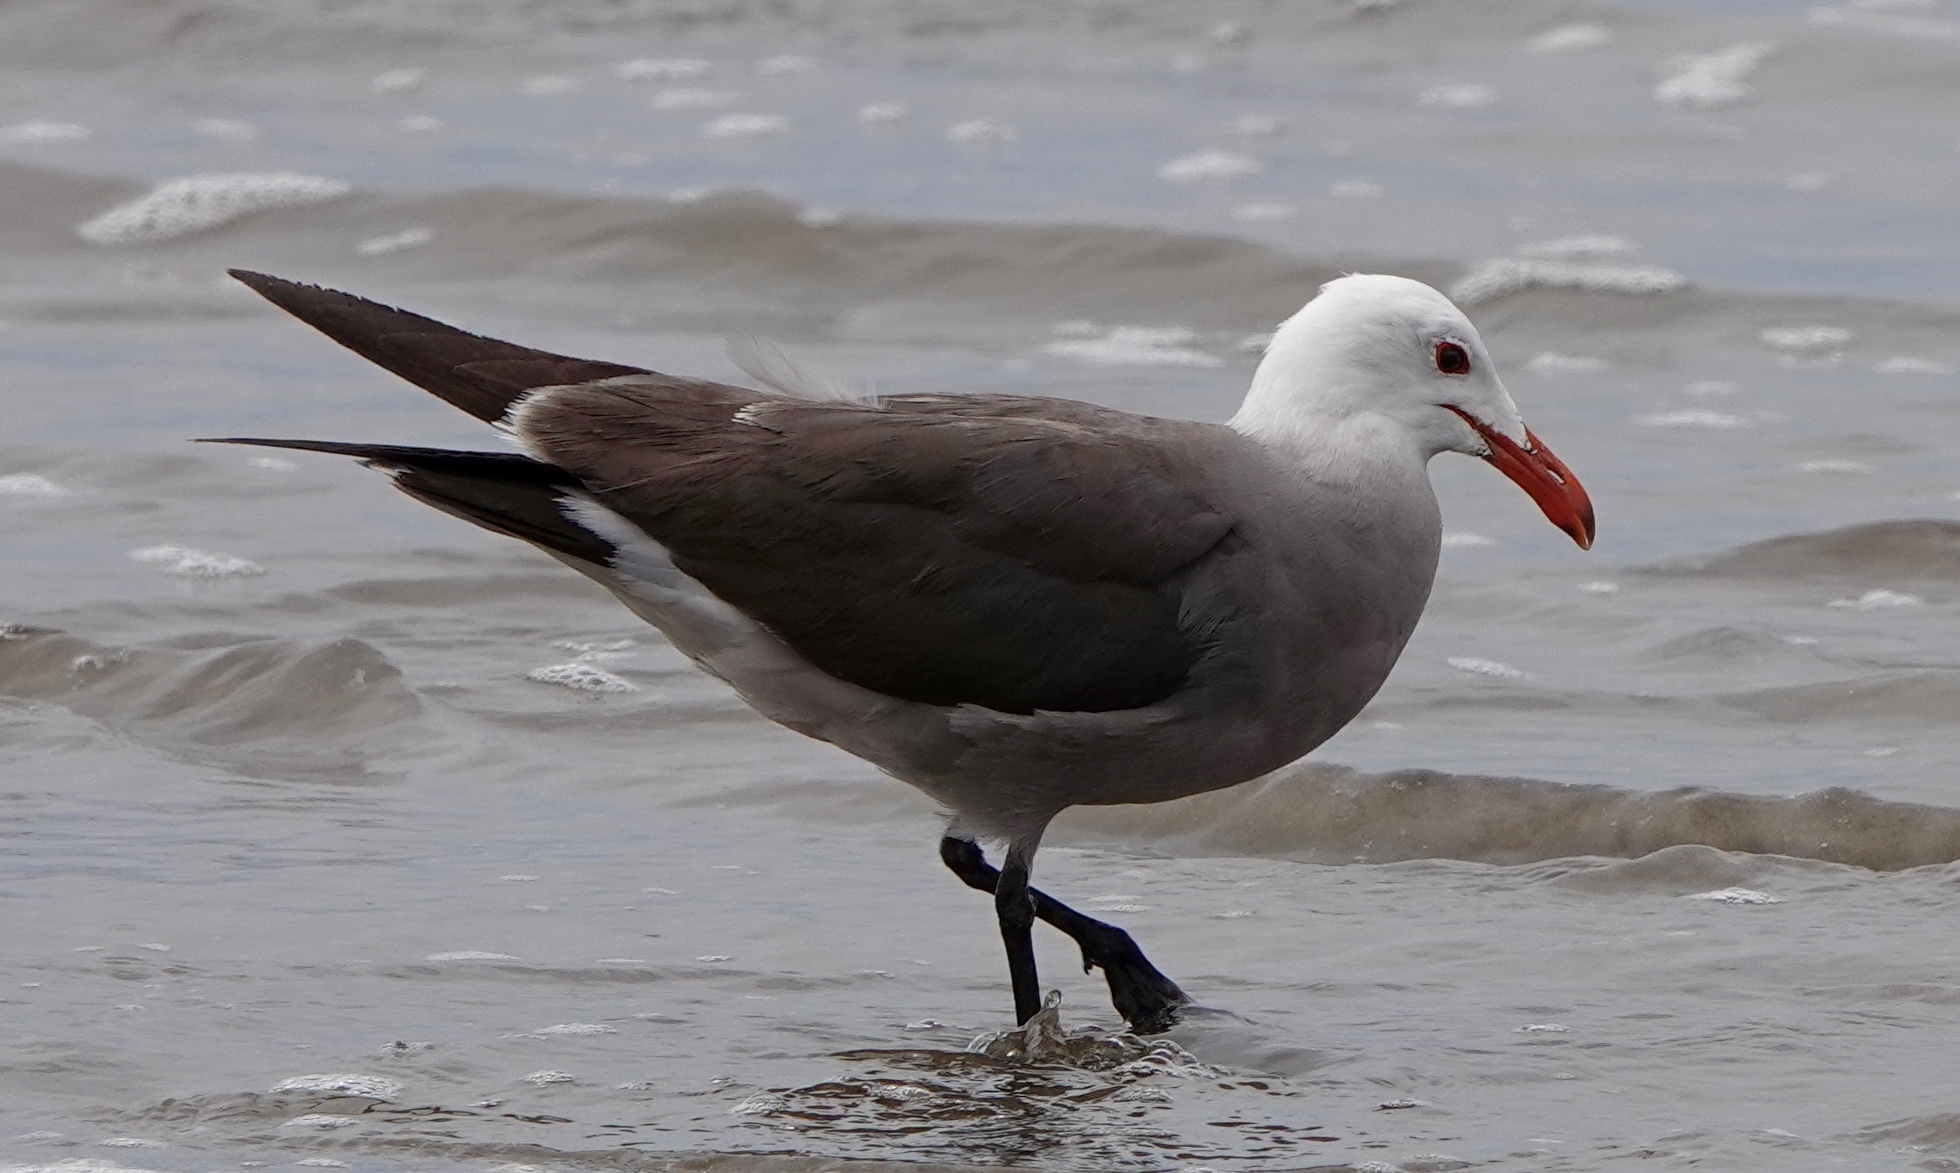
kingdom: Animalia
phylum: Chordata
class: Aves
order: Charadriiformes
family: Laridae
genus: Larus
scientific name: Larus heermanni
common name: Heermann's gull
